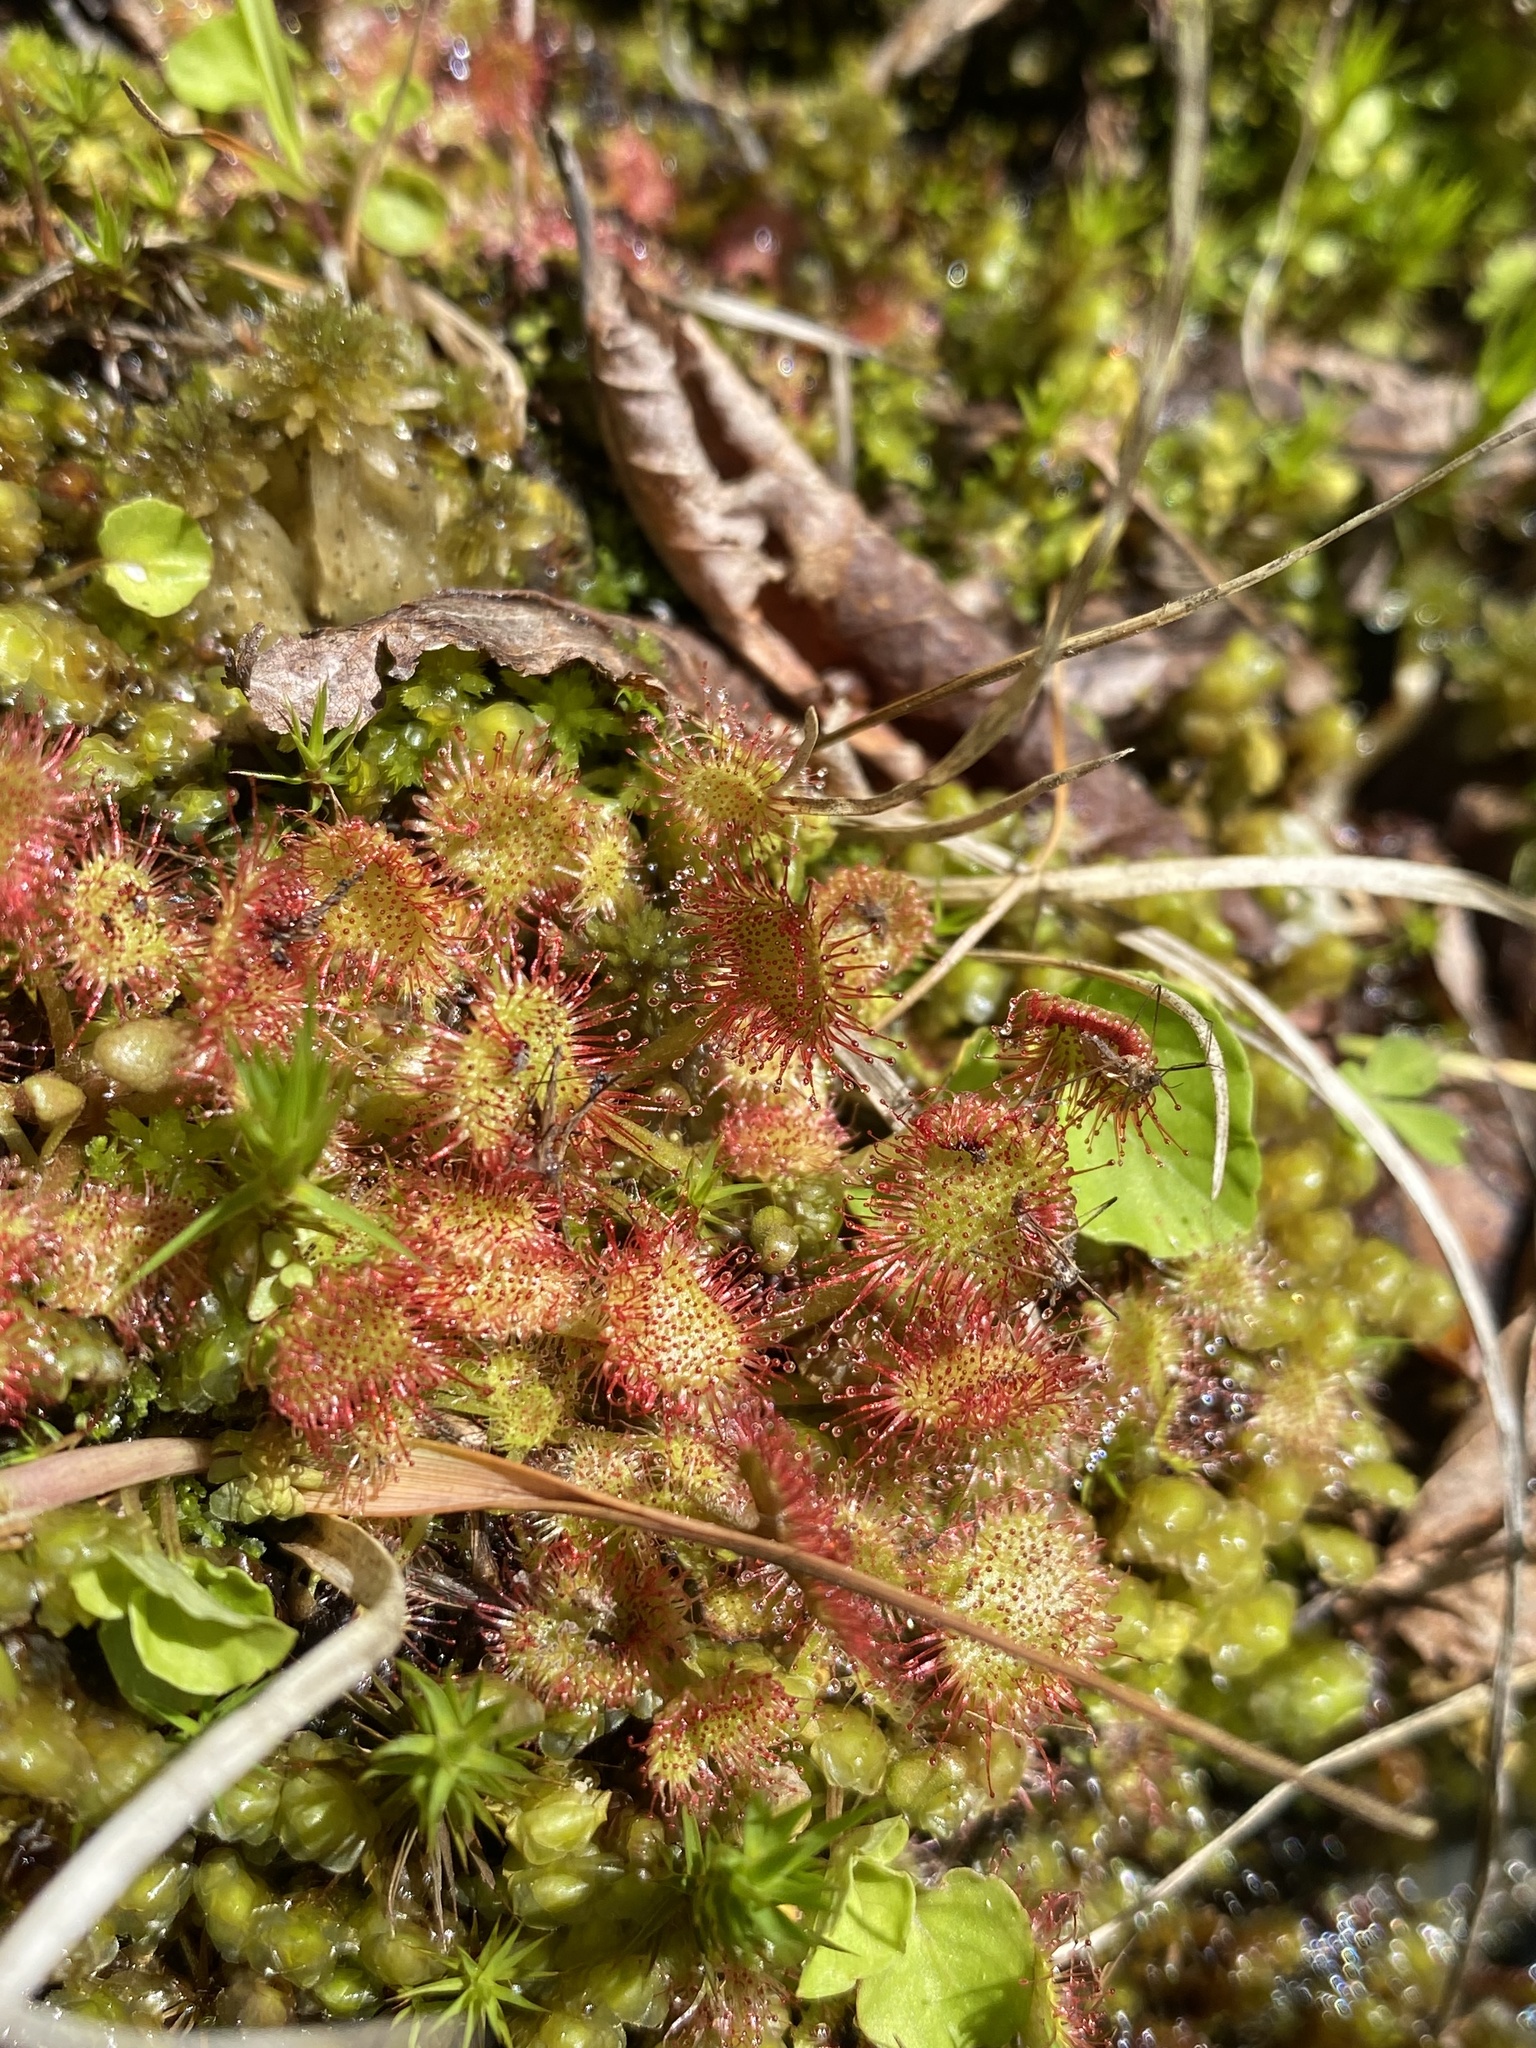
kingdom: Plantae
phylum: Tracheophyta
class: Magnoliopsida
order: Caryophyllales
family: Droseraceae
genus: Drosera
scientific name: Drosera rotundifolia
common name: Round-leaved sundew
